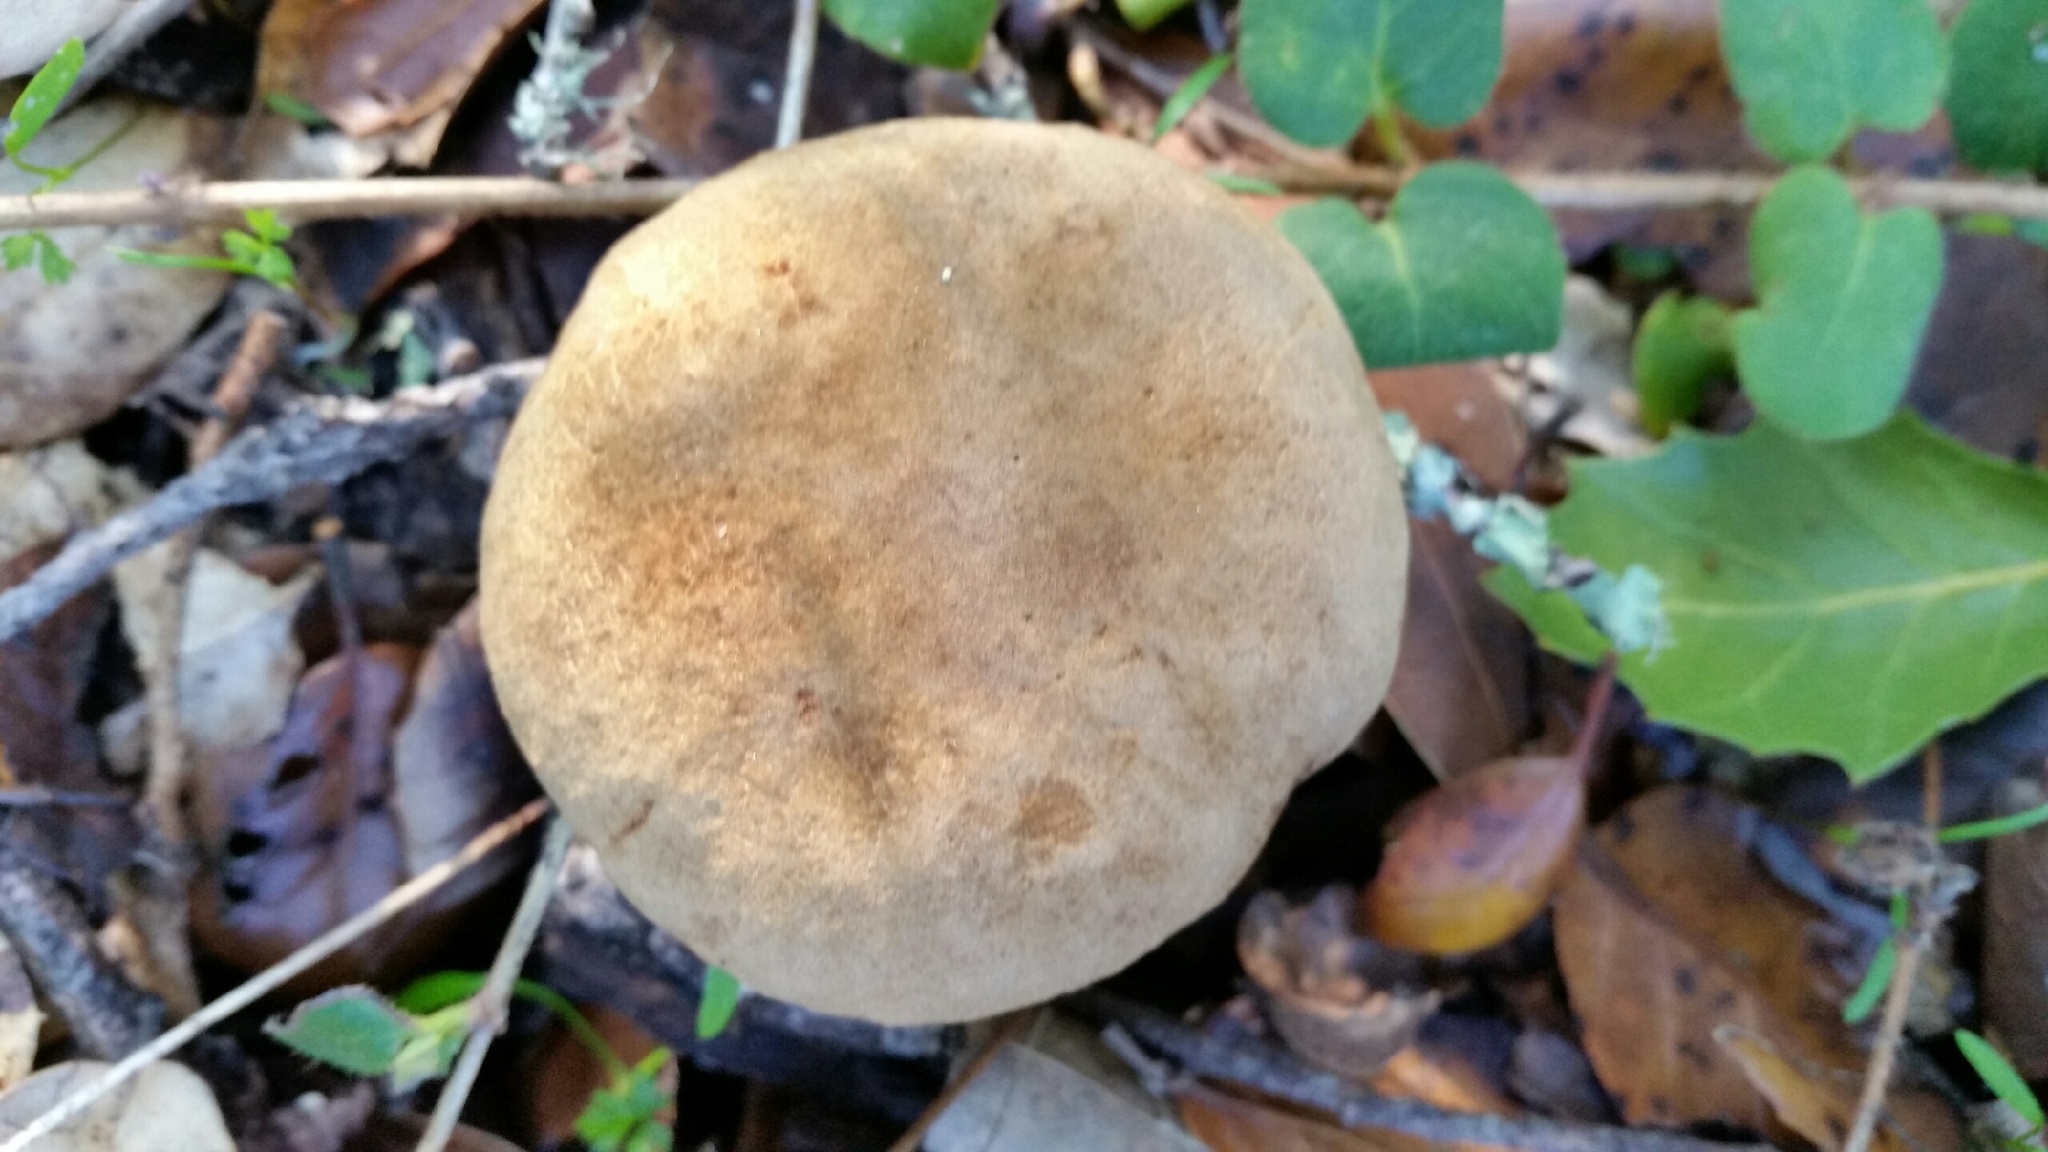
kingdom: Fungi
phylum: Basidiomycota
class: Agaricomycetes
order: Boletales
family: Boletaceae
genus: Xerocomus
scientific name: Xerocomus subtomentosus
